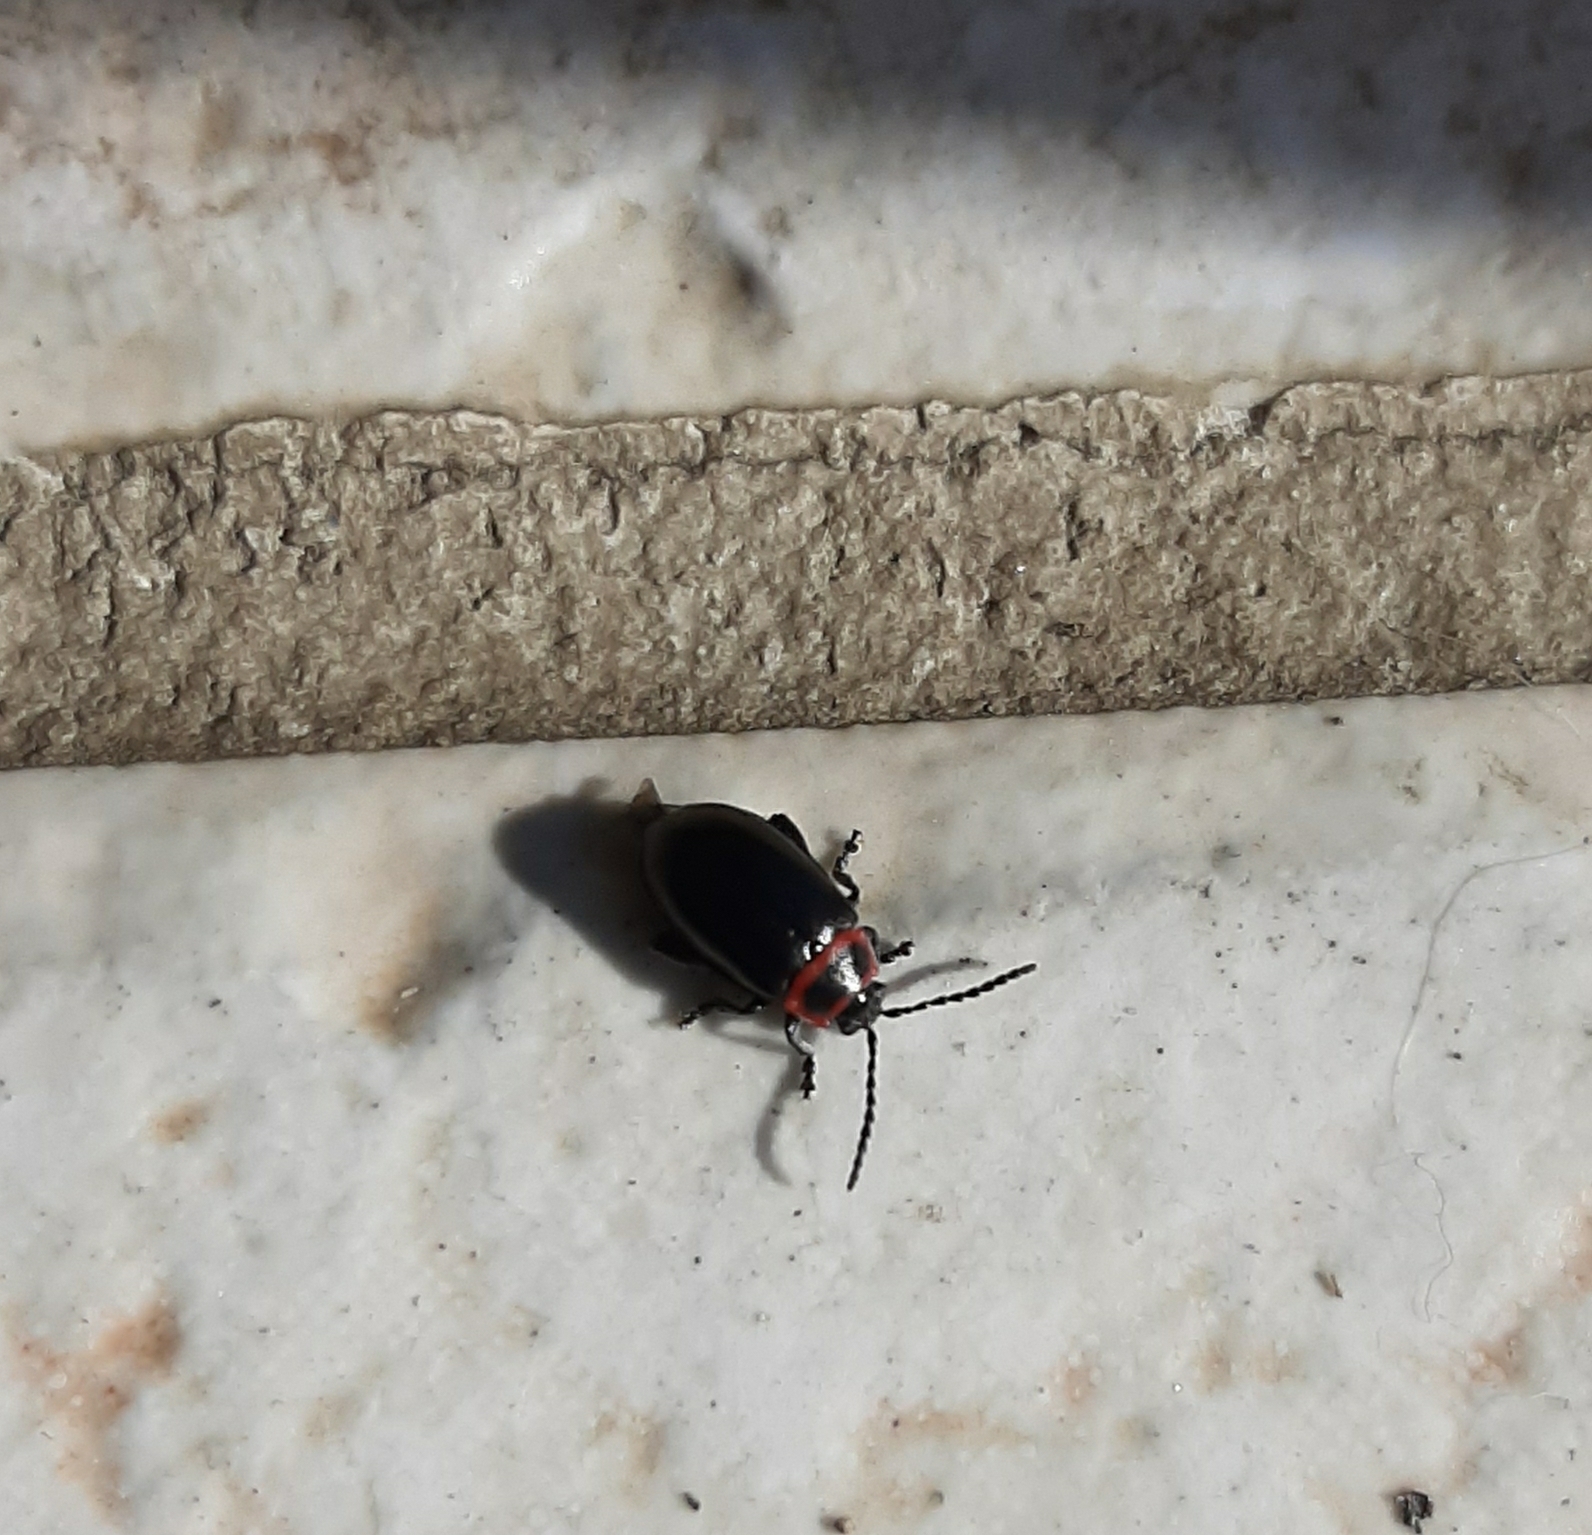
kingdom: Animalia
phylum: Arthropoda
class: Insecta
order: Coleoptera
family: Chrysomelidae
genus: Kuschelina
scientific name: Kuschelina vians
